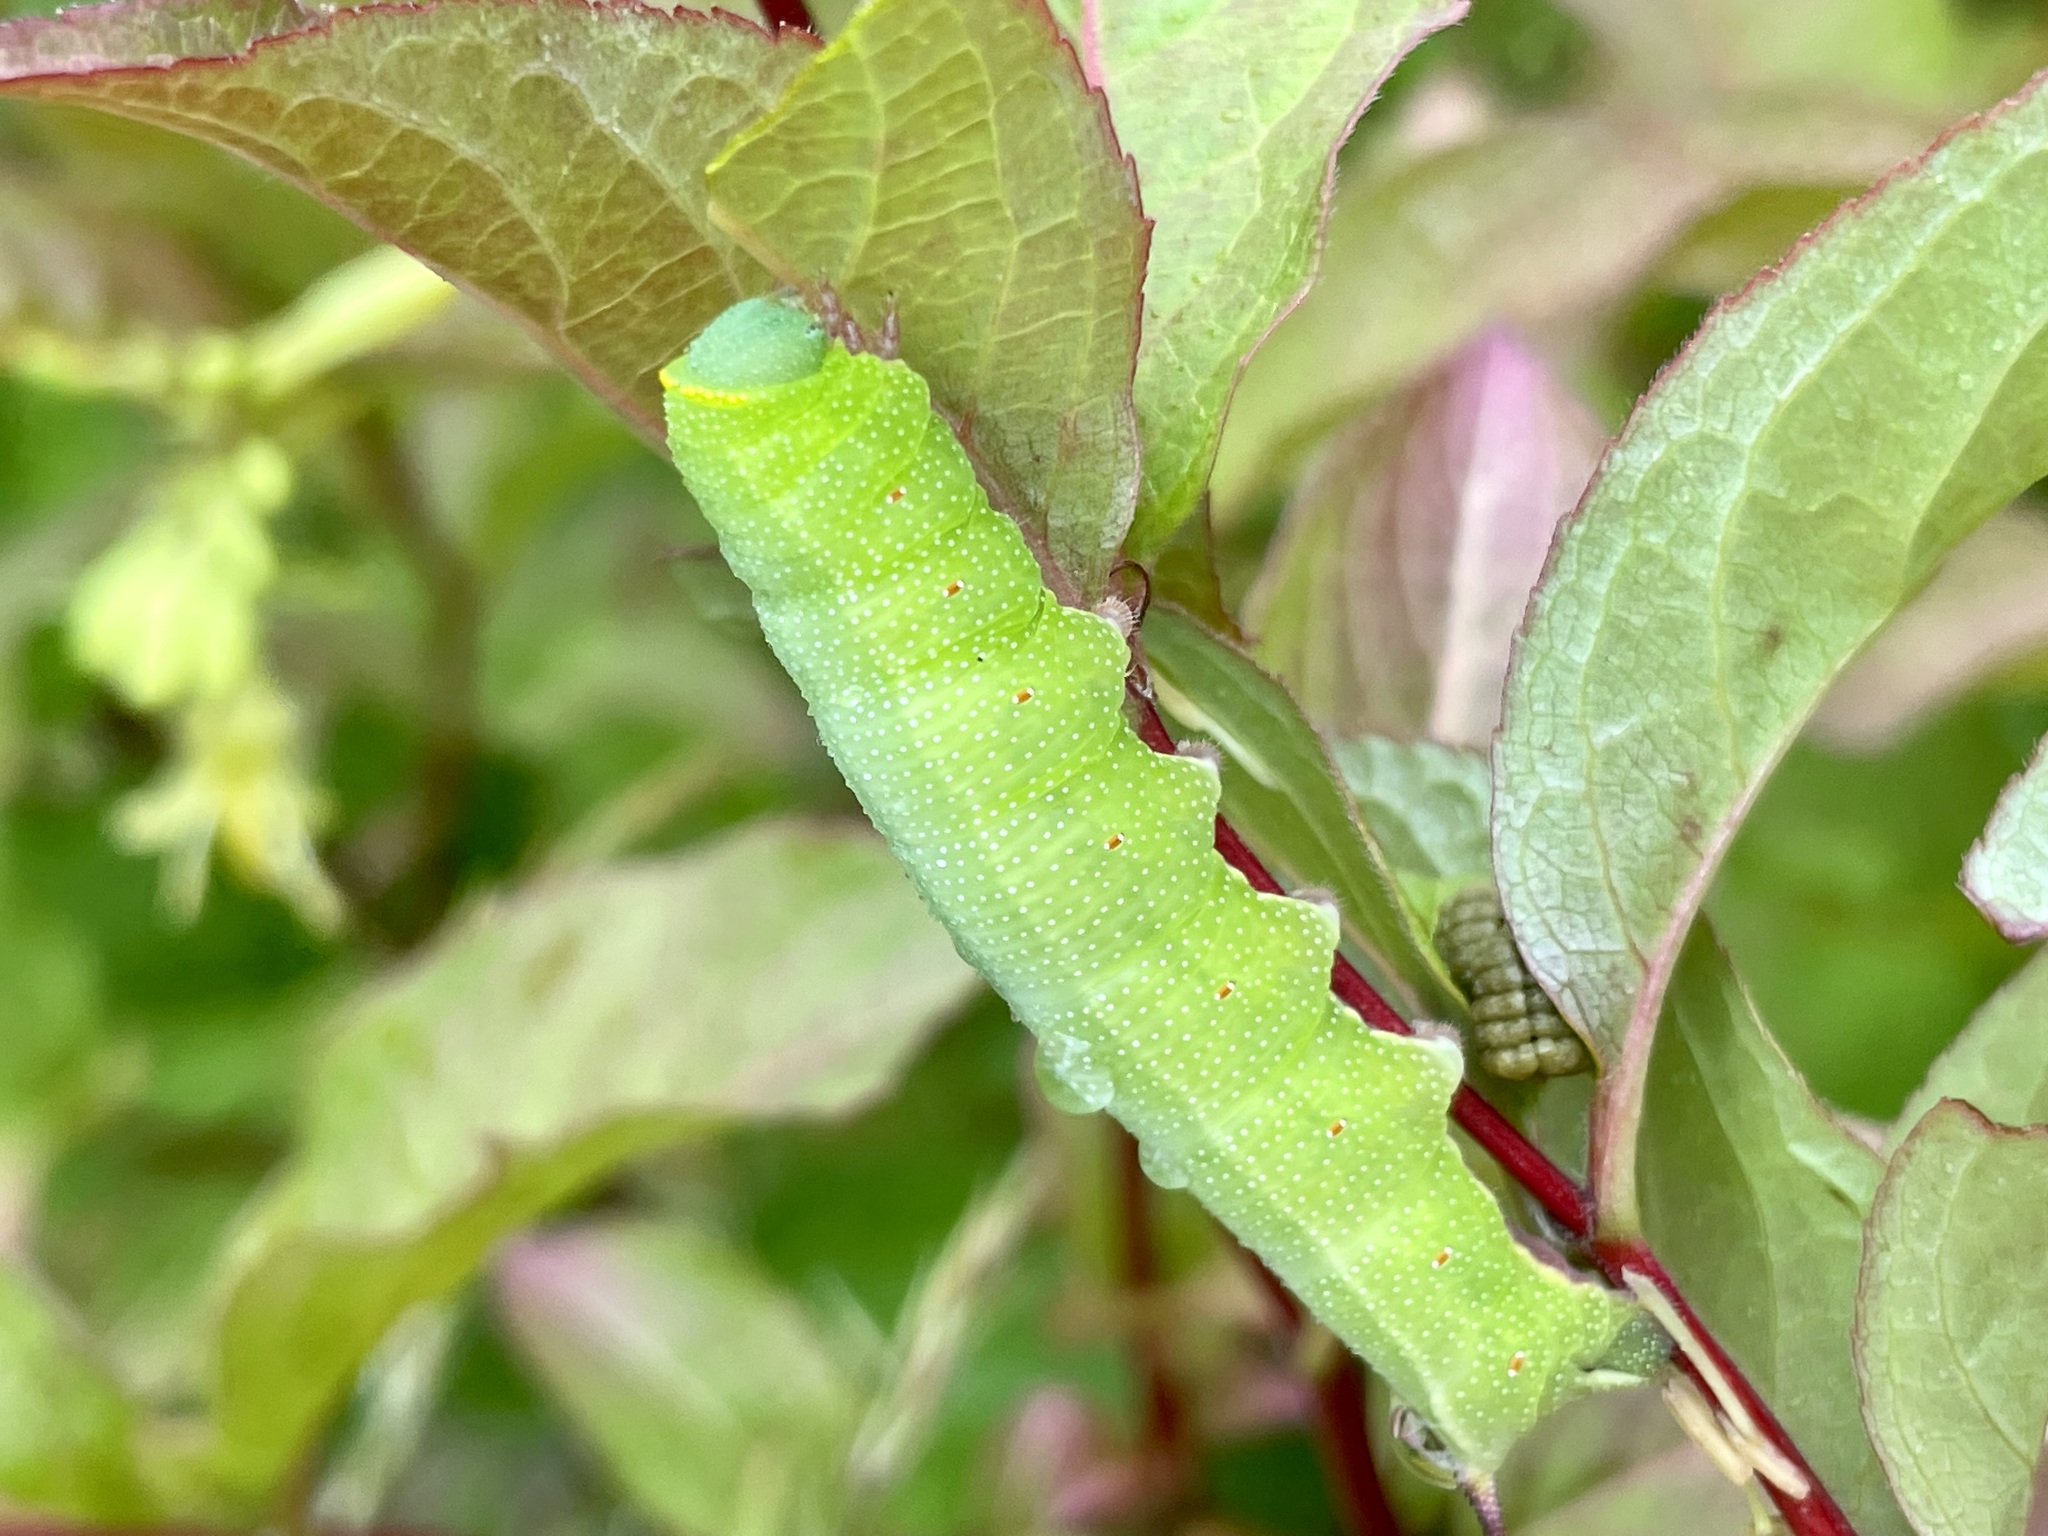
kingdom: Animalia
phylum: Arthropoda
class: Insecta
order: Lepidoptera
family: Sphingidae
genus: Hemaris
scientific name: Hemaris diffinis
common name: Bumblebee moth
